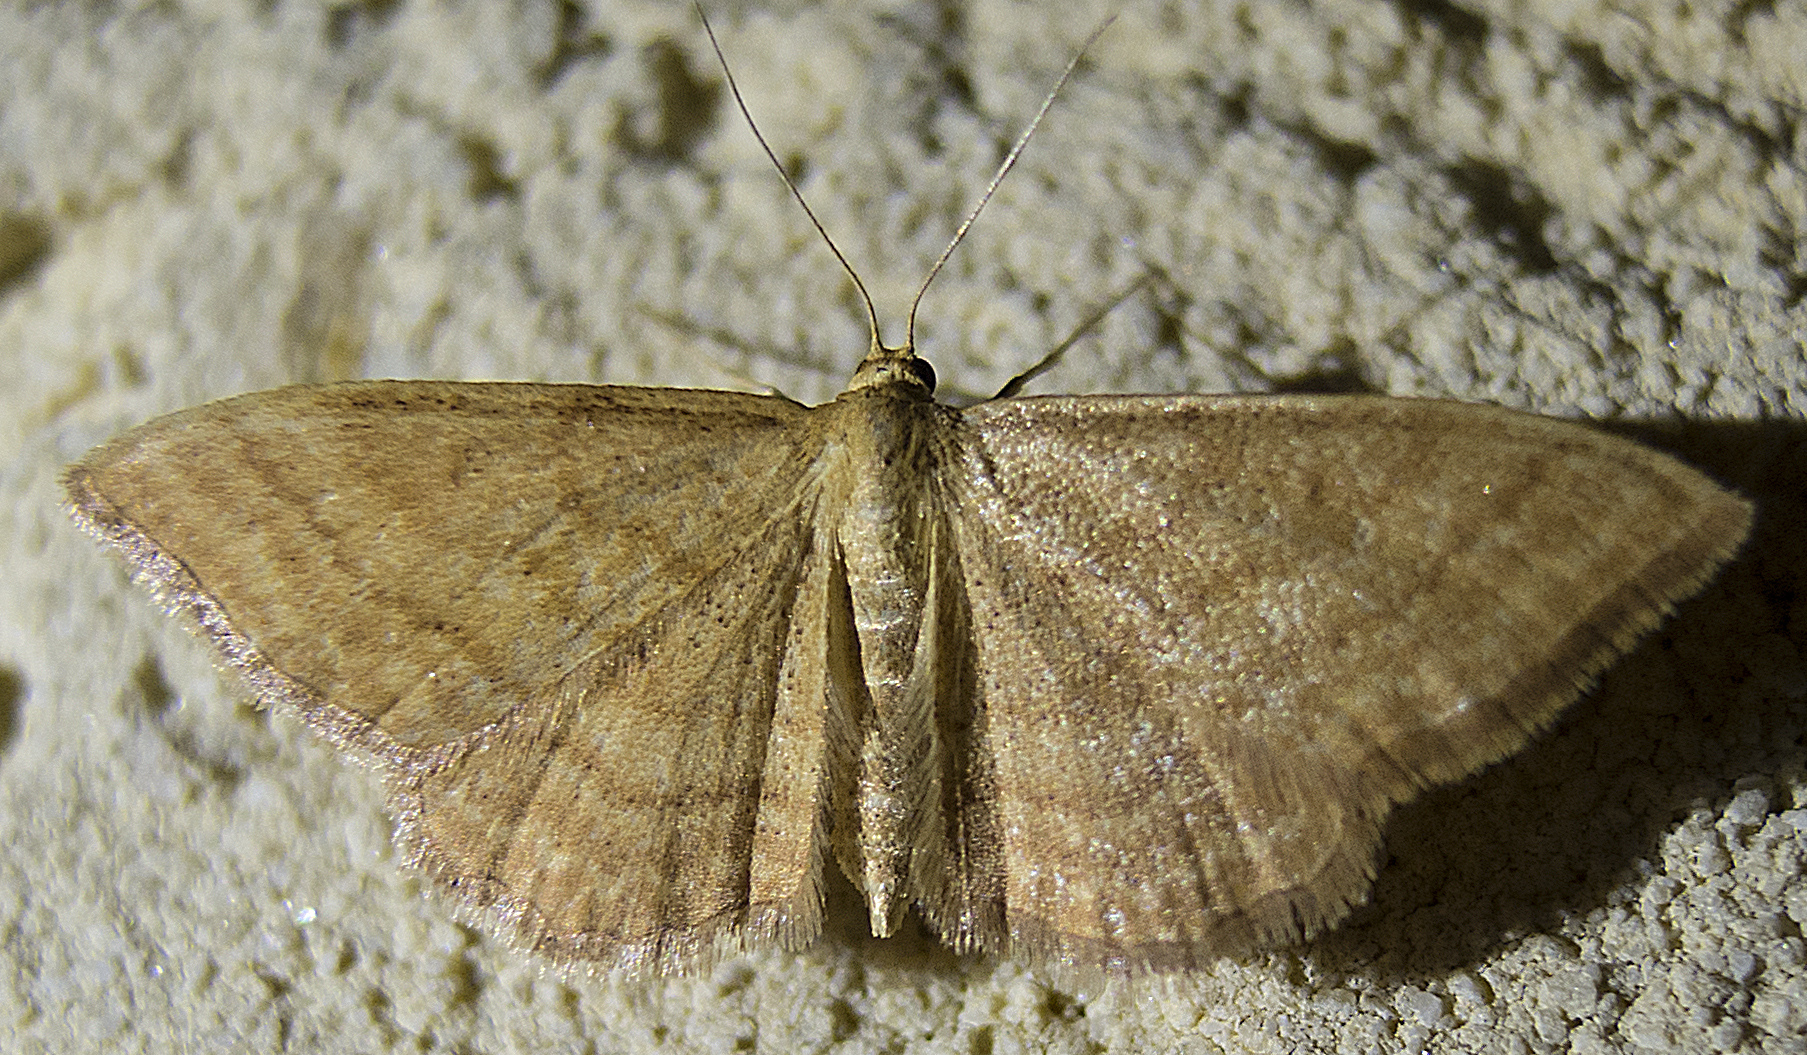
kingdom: Animalia
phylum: Arthropoda
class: Insecta
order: Lepidoptera
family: Geometridae
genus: Idaea
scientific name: Idaea ochrata
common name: Bright wave
